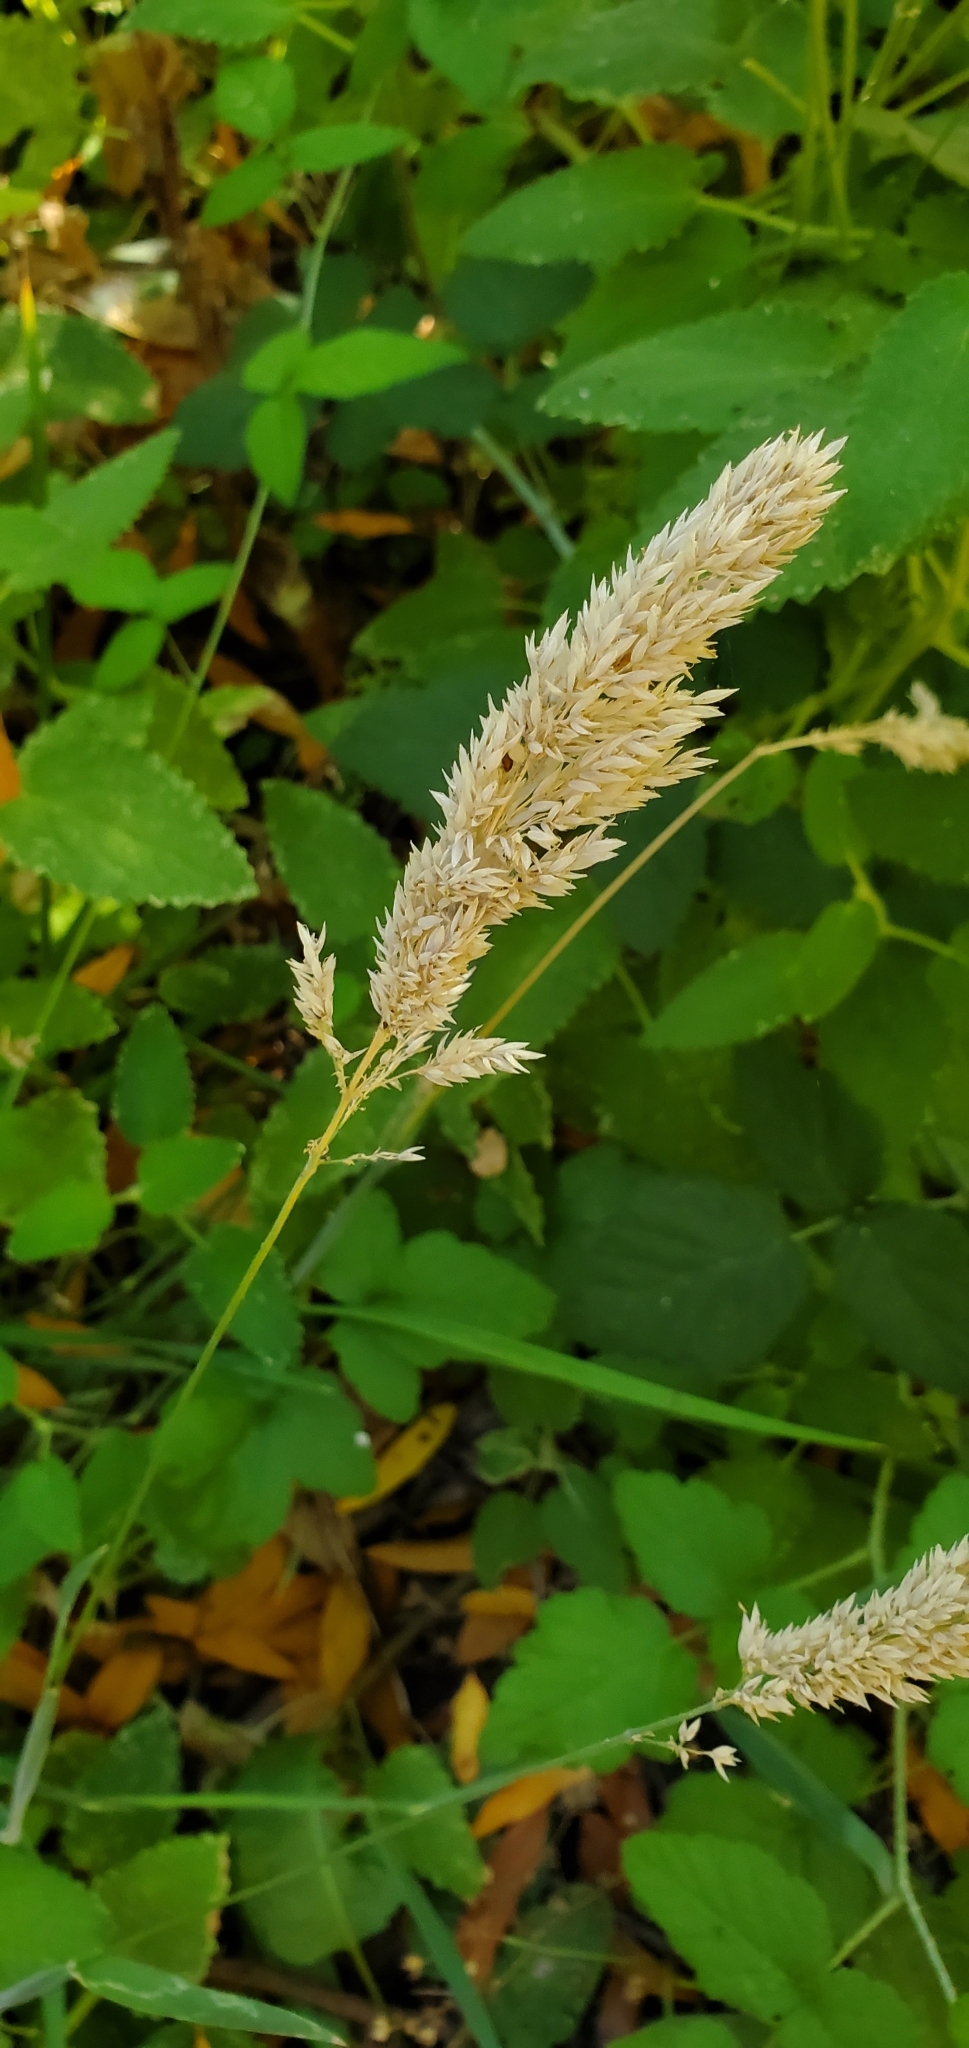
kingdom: Plantae
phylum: Tracheophyta
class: Liliopsida
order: Poales
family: Poaceae
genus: Holcus
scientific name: Holcus lanatus
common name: Yorkshire-fog
